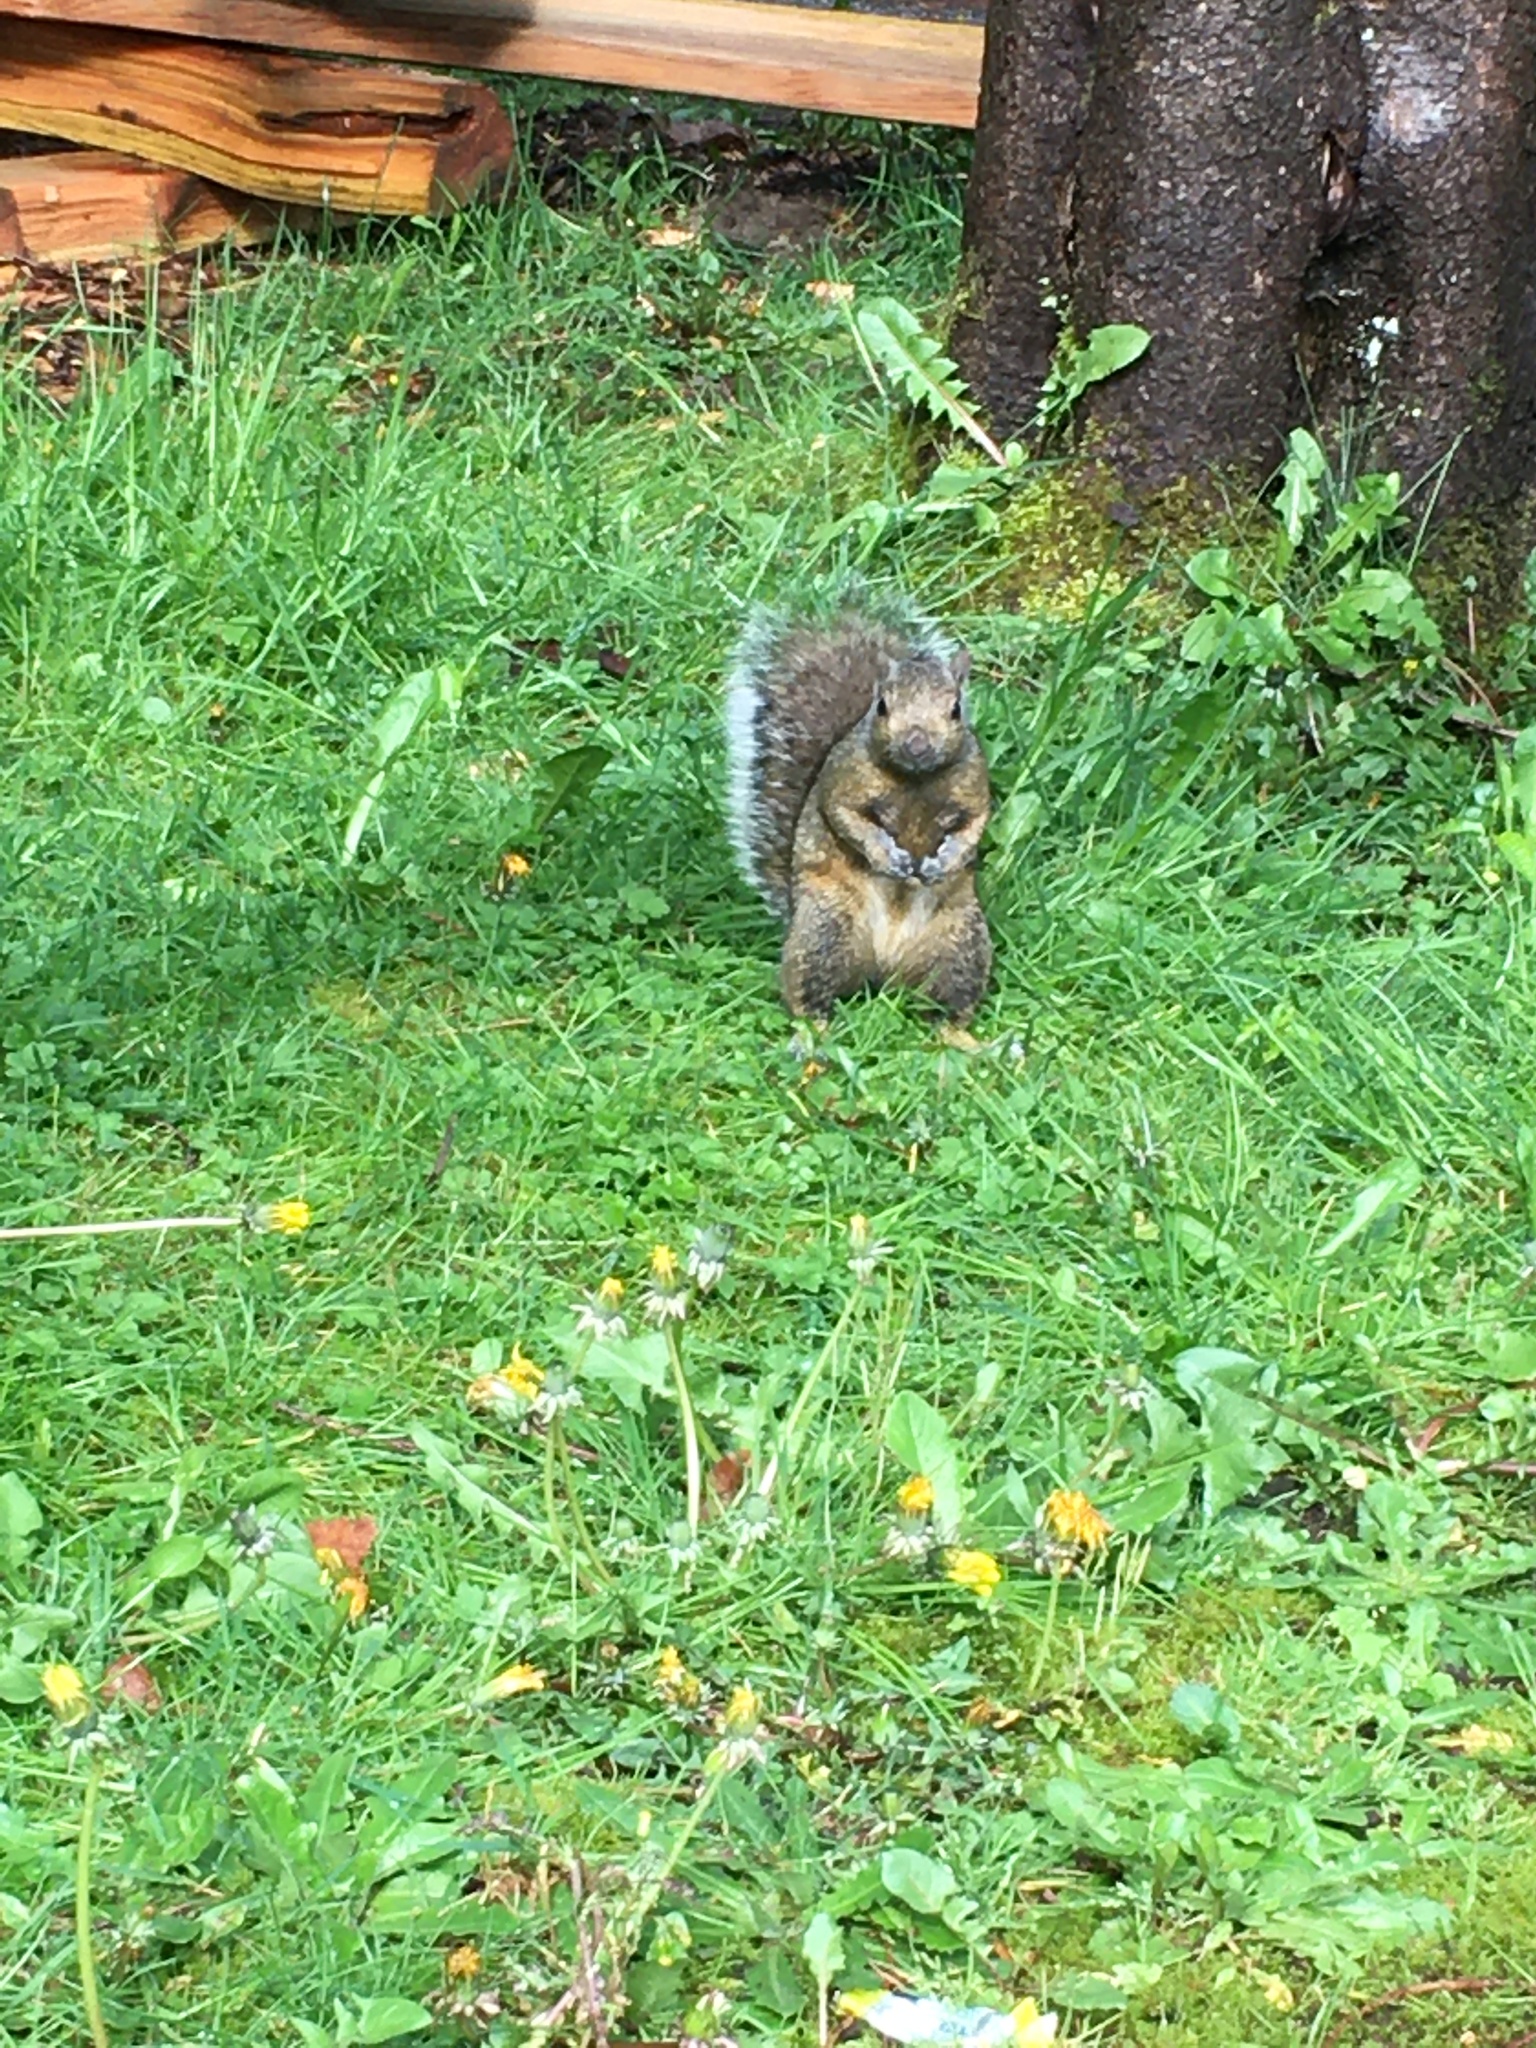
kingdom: Animalia
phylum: Chordata
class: Mammalia
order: Rodentia
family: Sciuridae
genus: Sciurus
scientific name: Sciurus carolinensis
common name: Eastern gray squirrel
